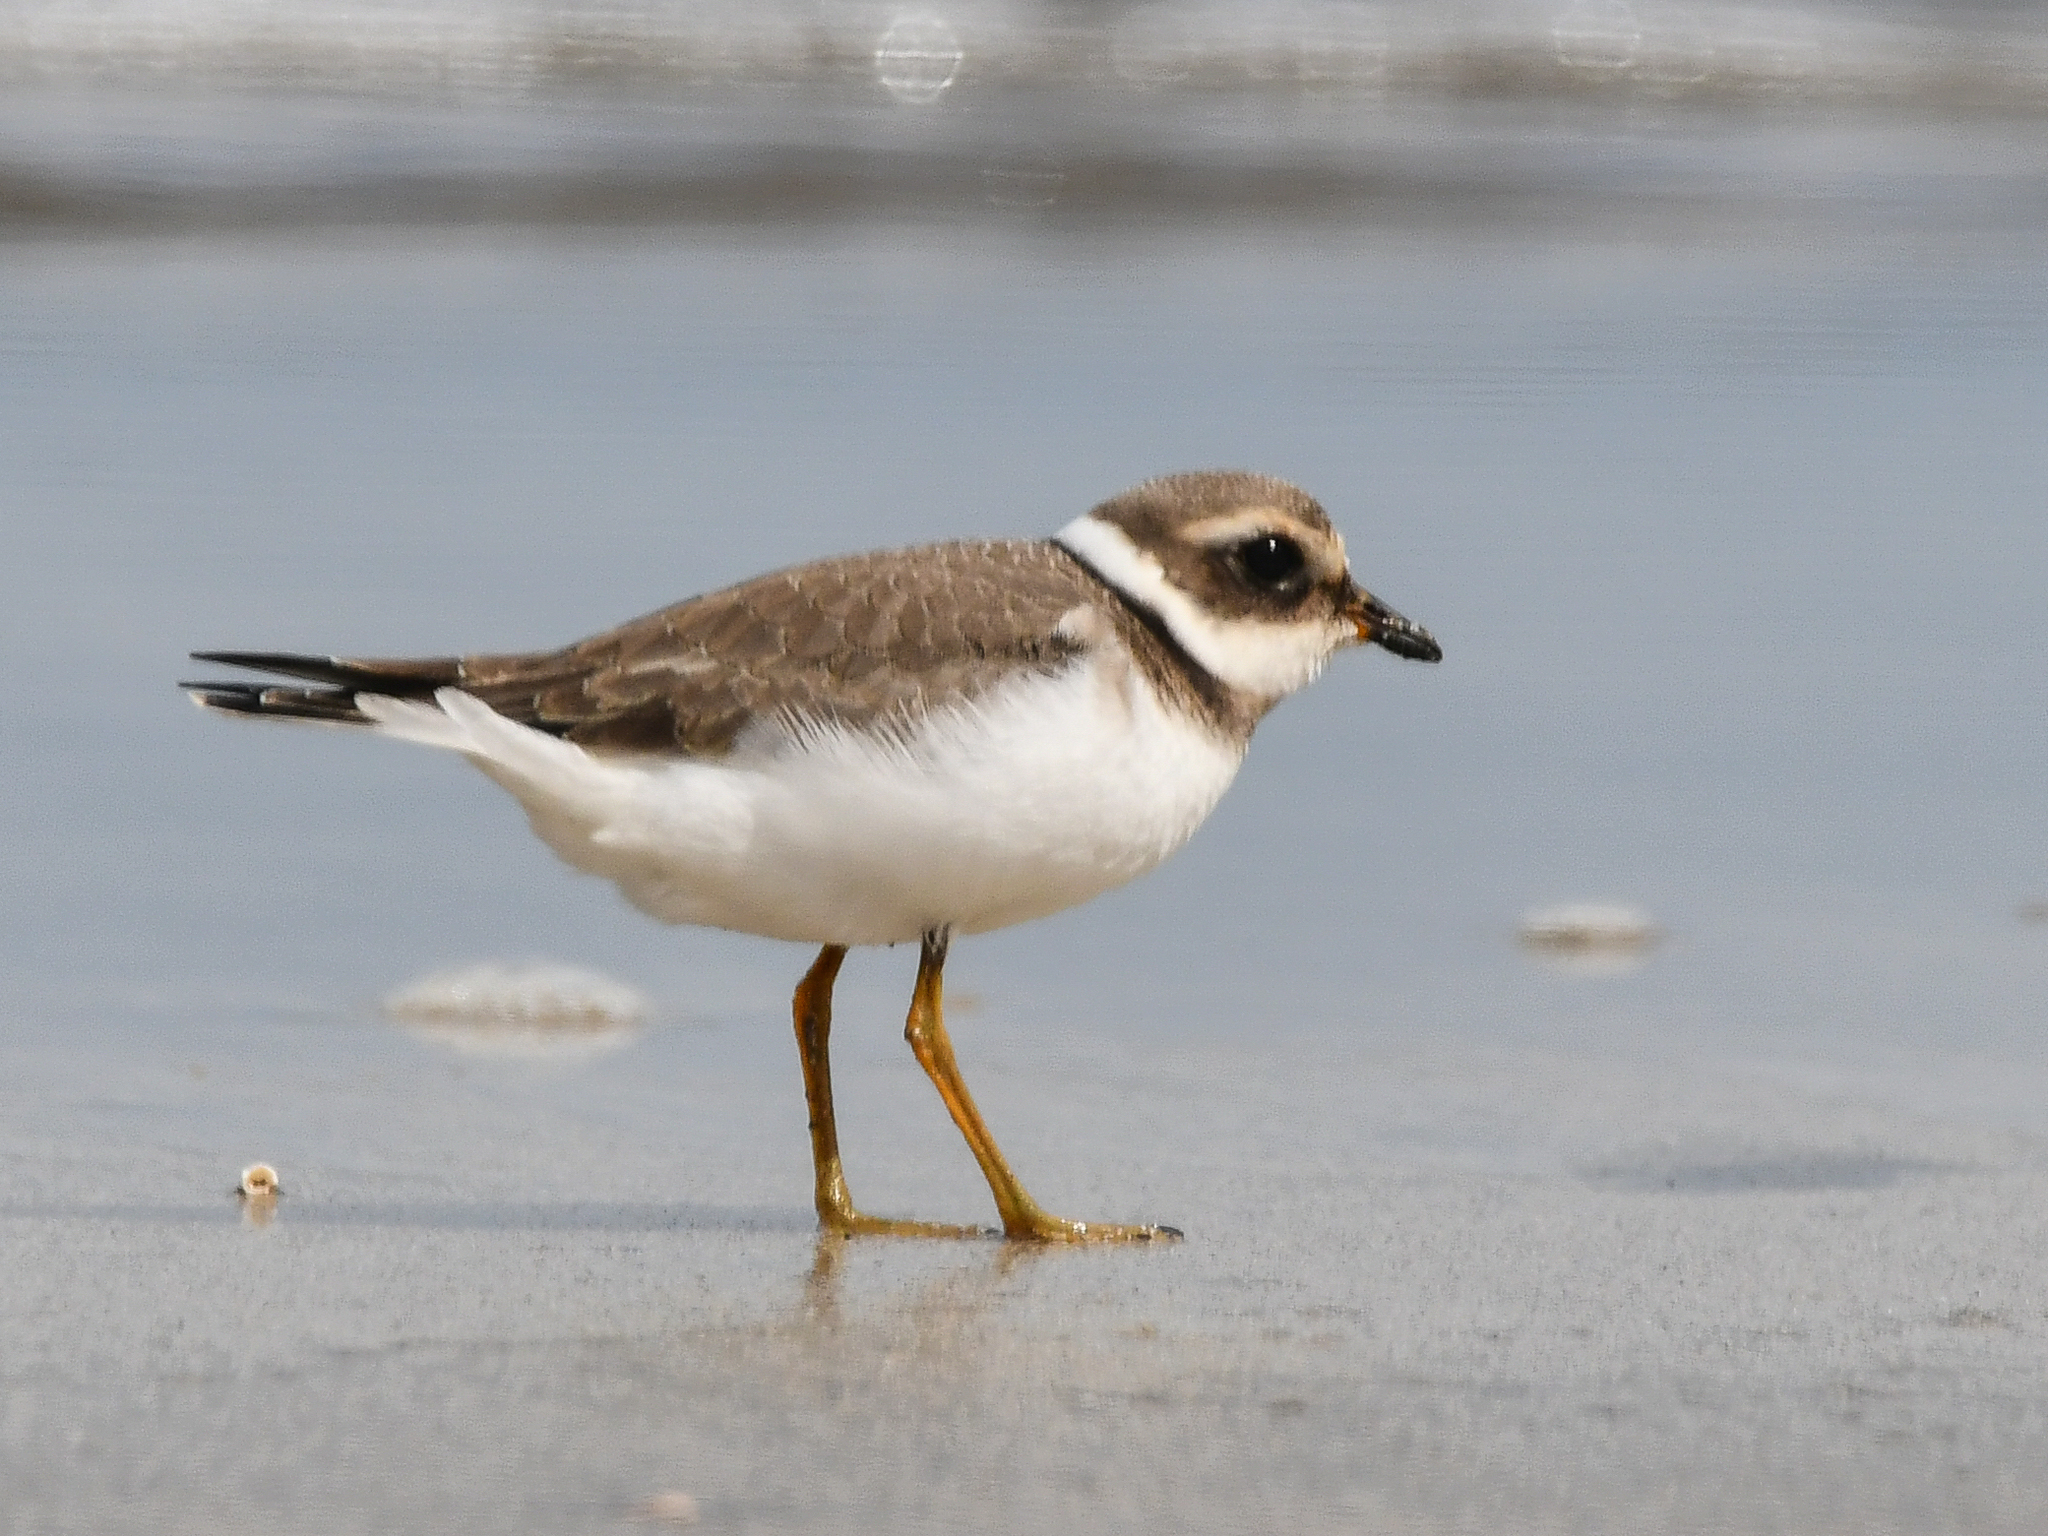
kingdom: Animalia
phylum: Chordata
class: Aves
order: Charadriiformes
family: Charadriidae
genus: Charadrius
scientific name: Charadrius hiaticula
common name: Common ringed plover
